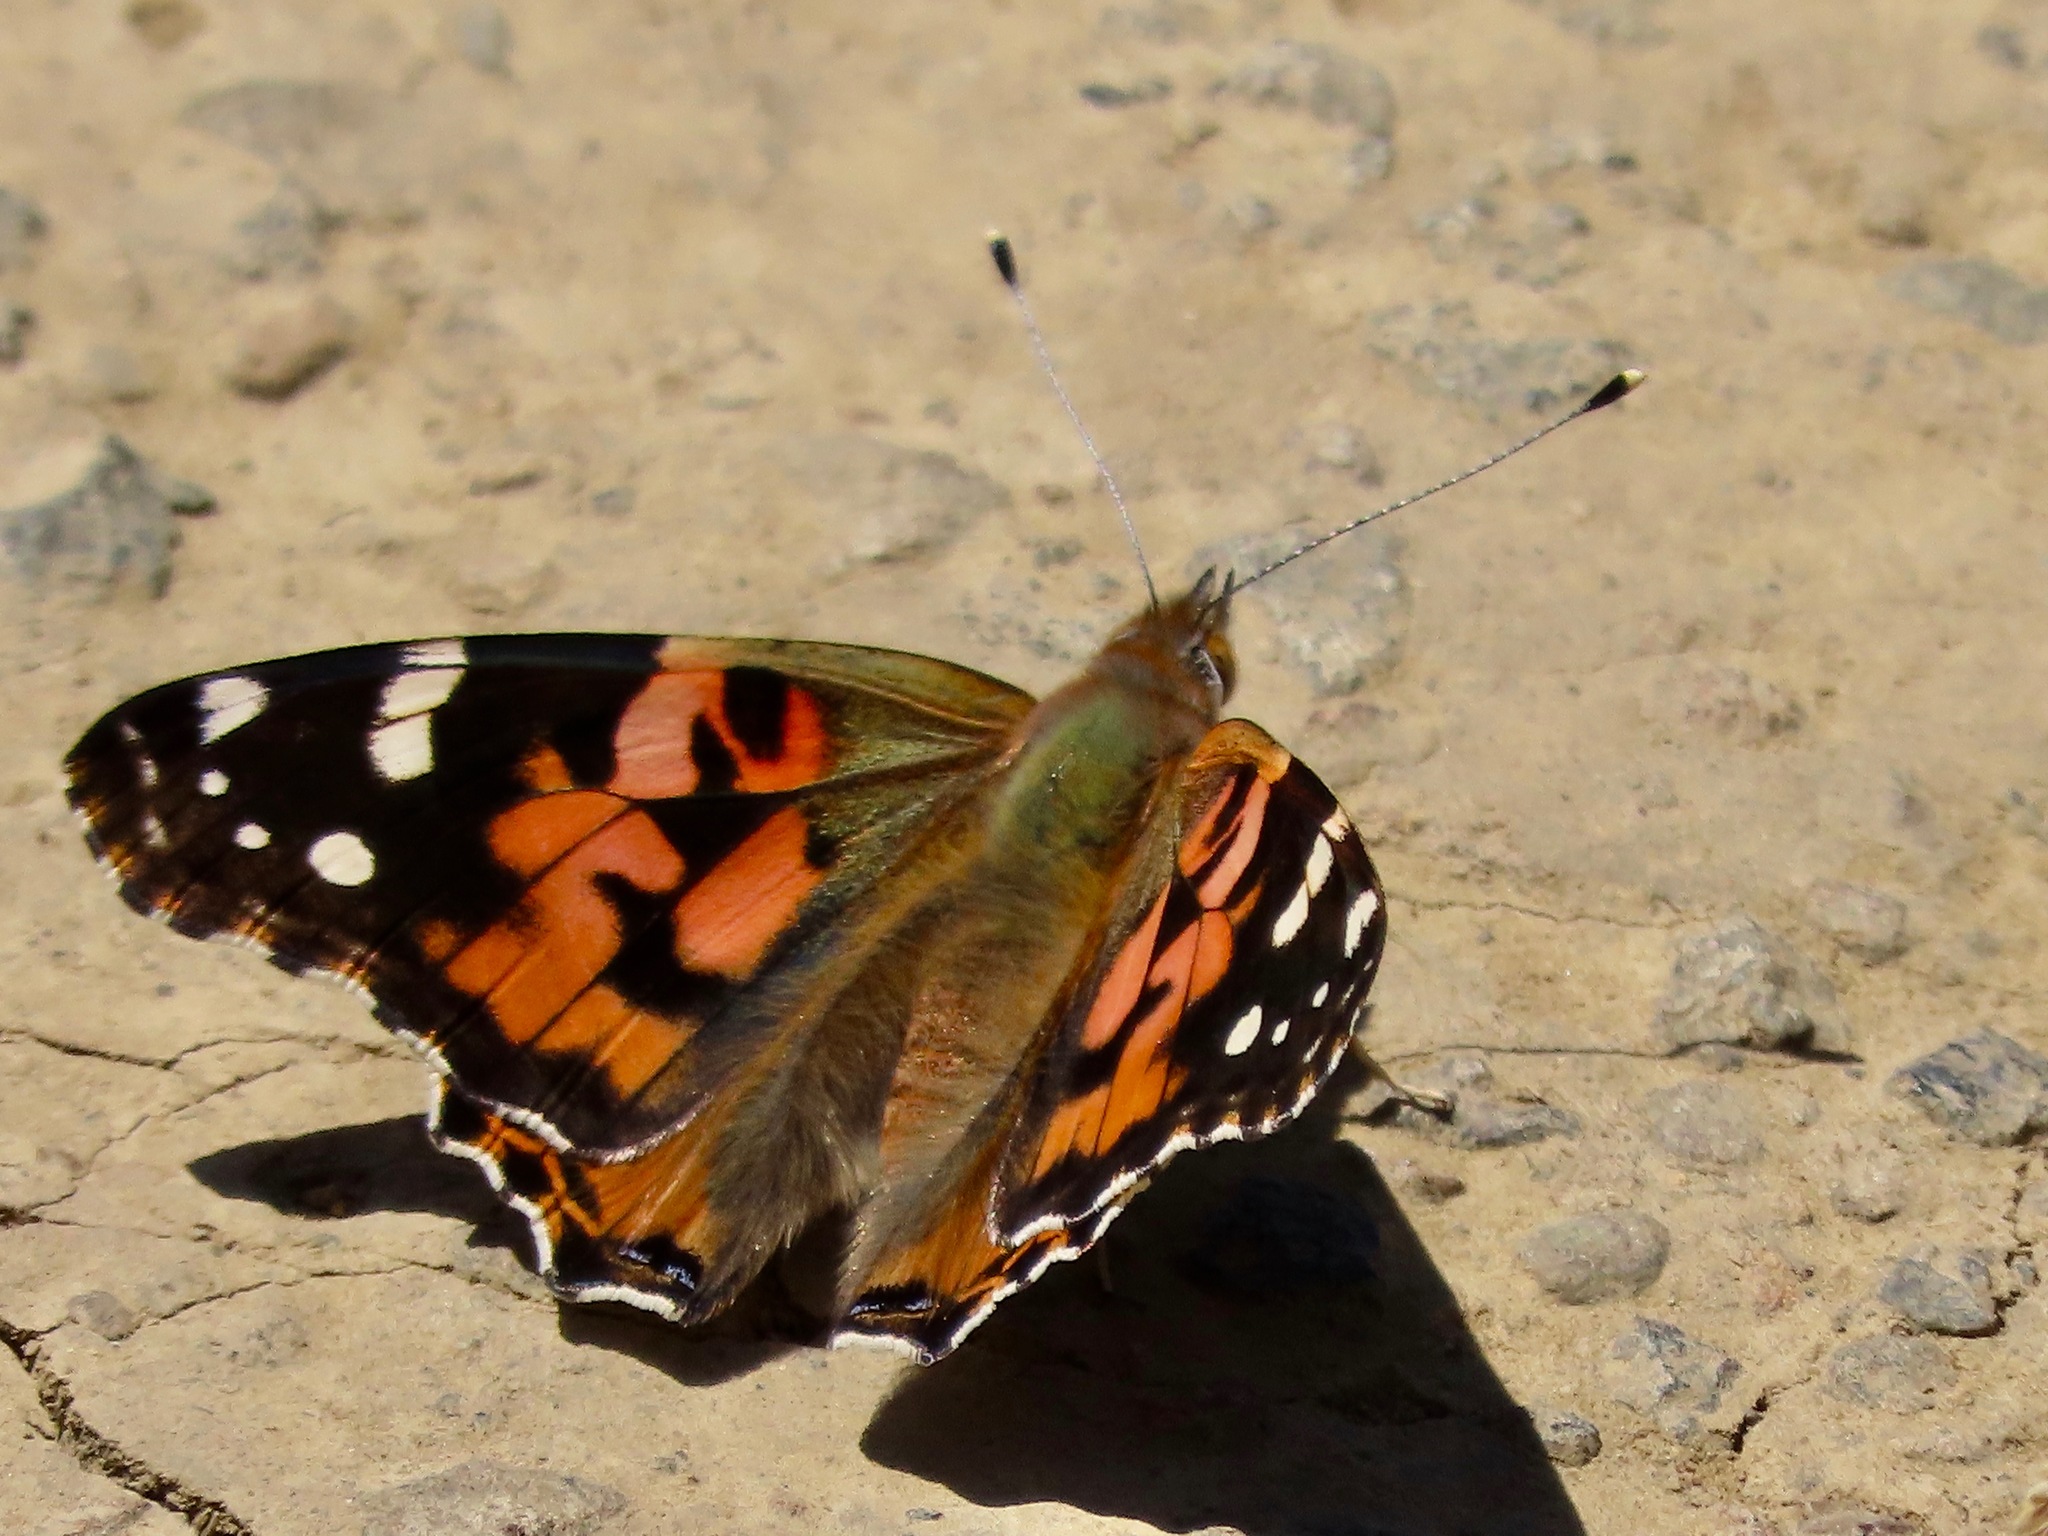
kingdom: Animalia
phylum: Arthropoda
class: Insecta
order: Lepidoptera
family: Nymphalidae
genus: Vanessa
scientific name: Vanessa cardui
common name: Painted lady
